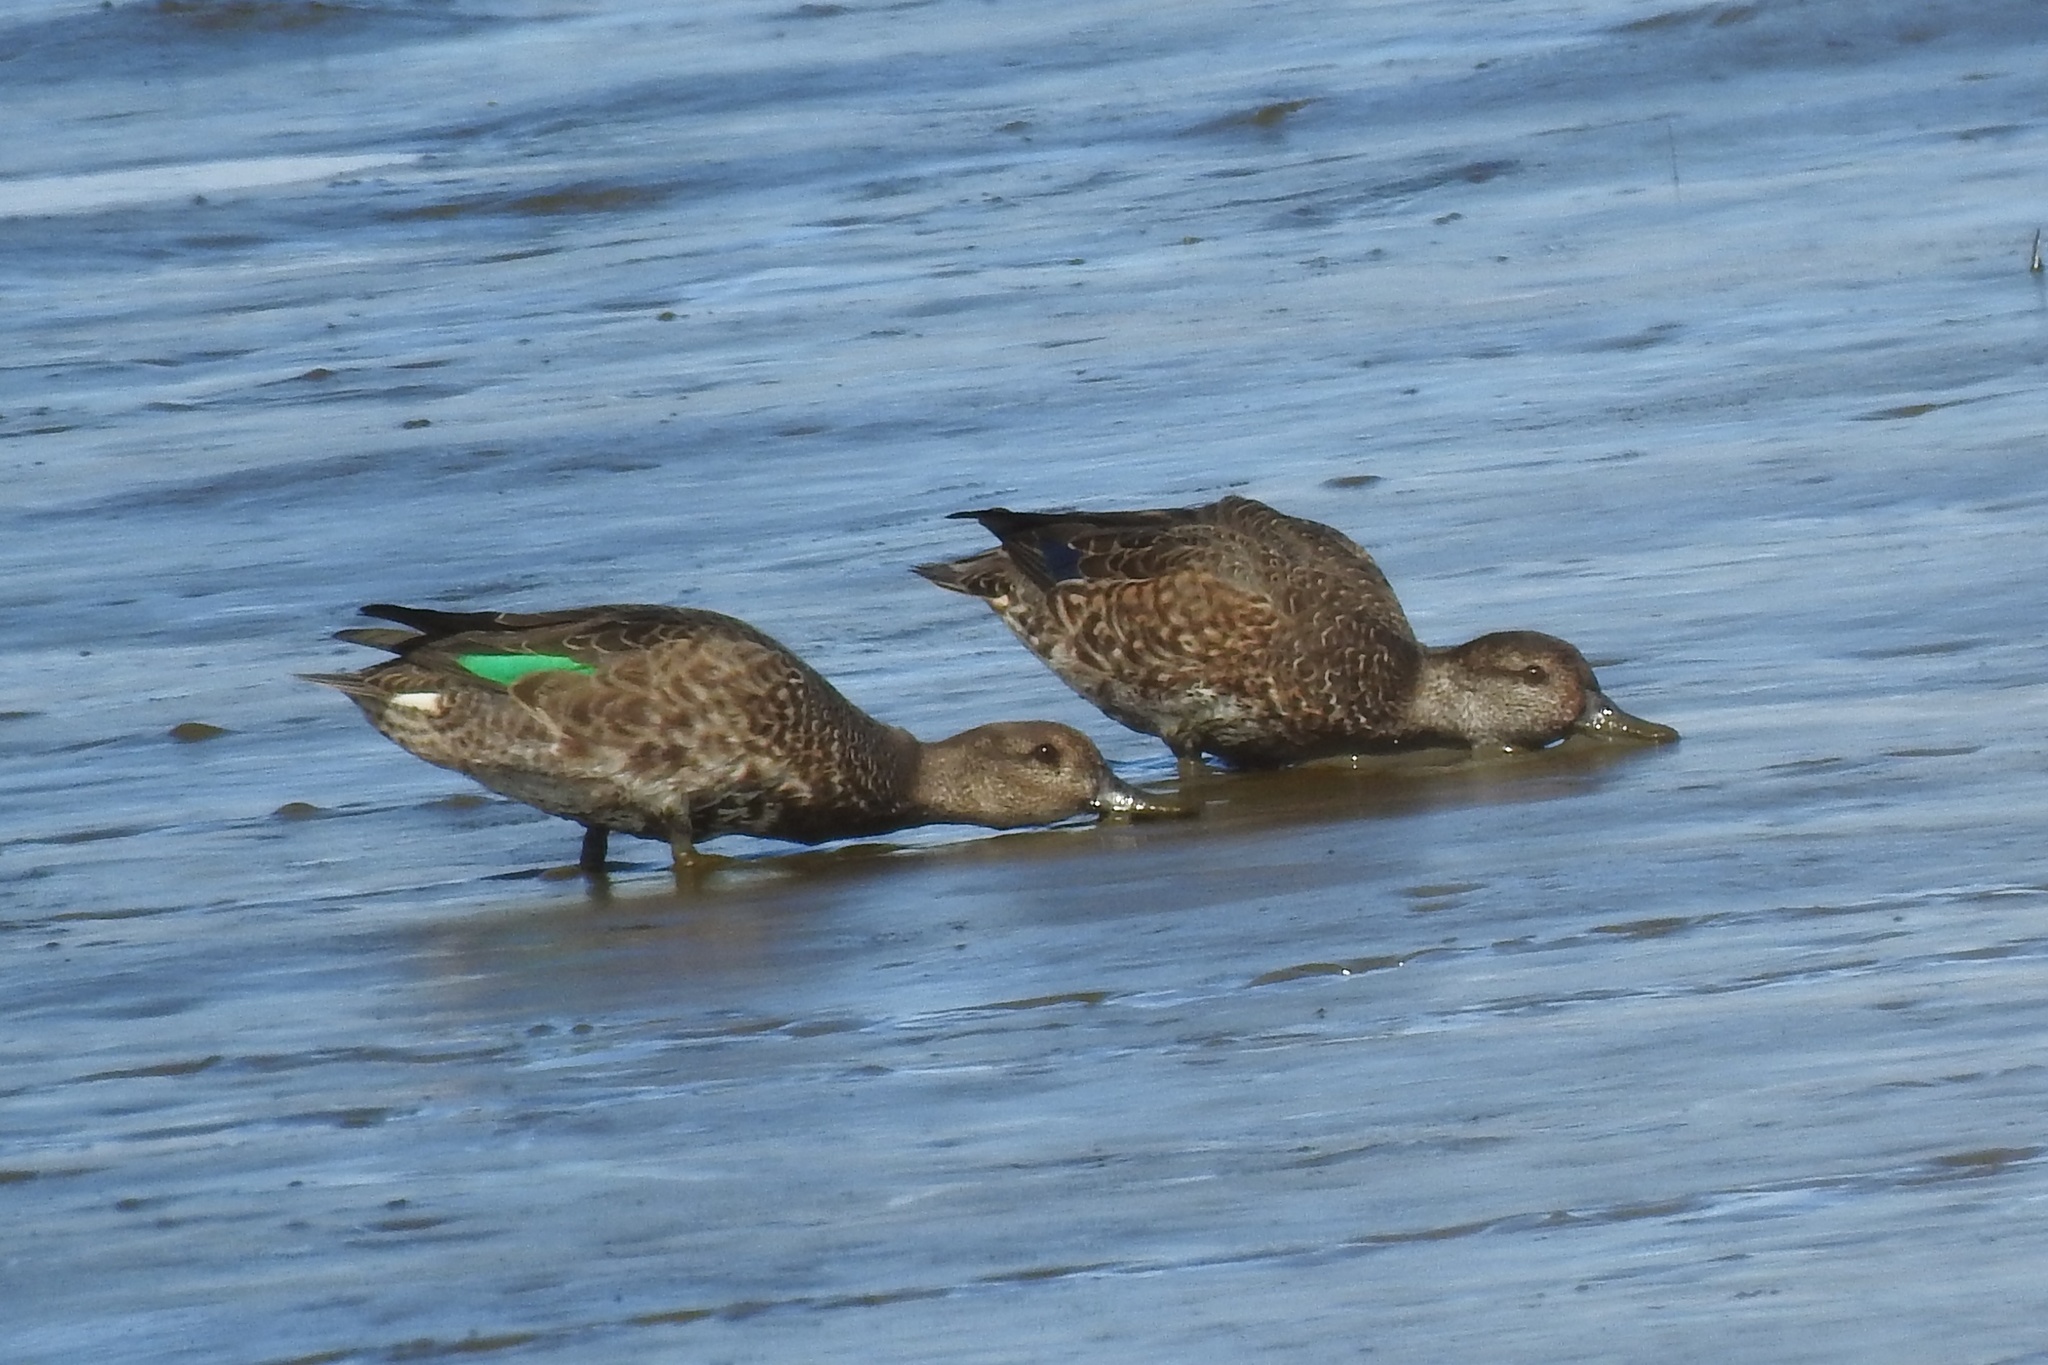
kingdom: Animalia
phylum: Chordata
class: Aves
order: Anseriformes
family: Anatidae
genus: Anas
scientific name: Anas carolinensis
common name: Green-winged teal
